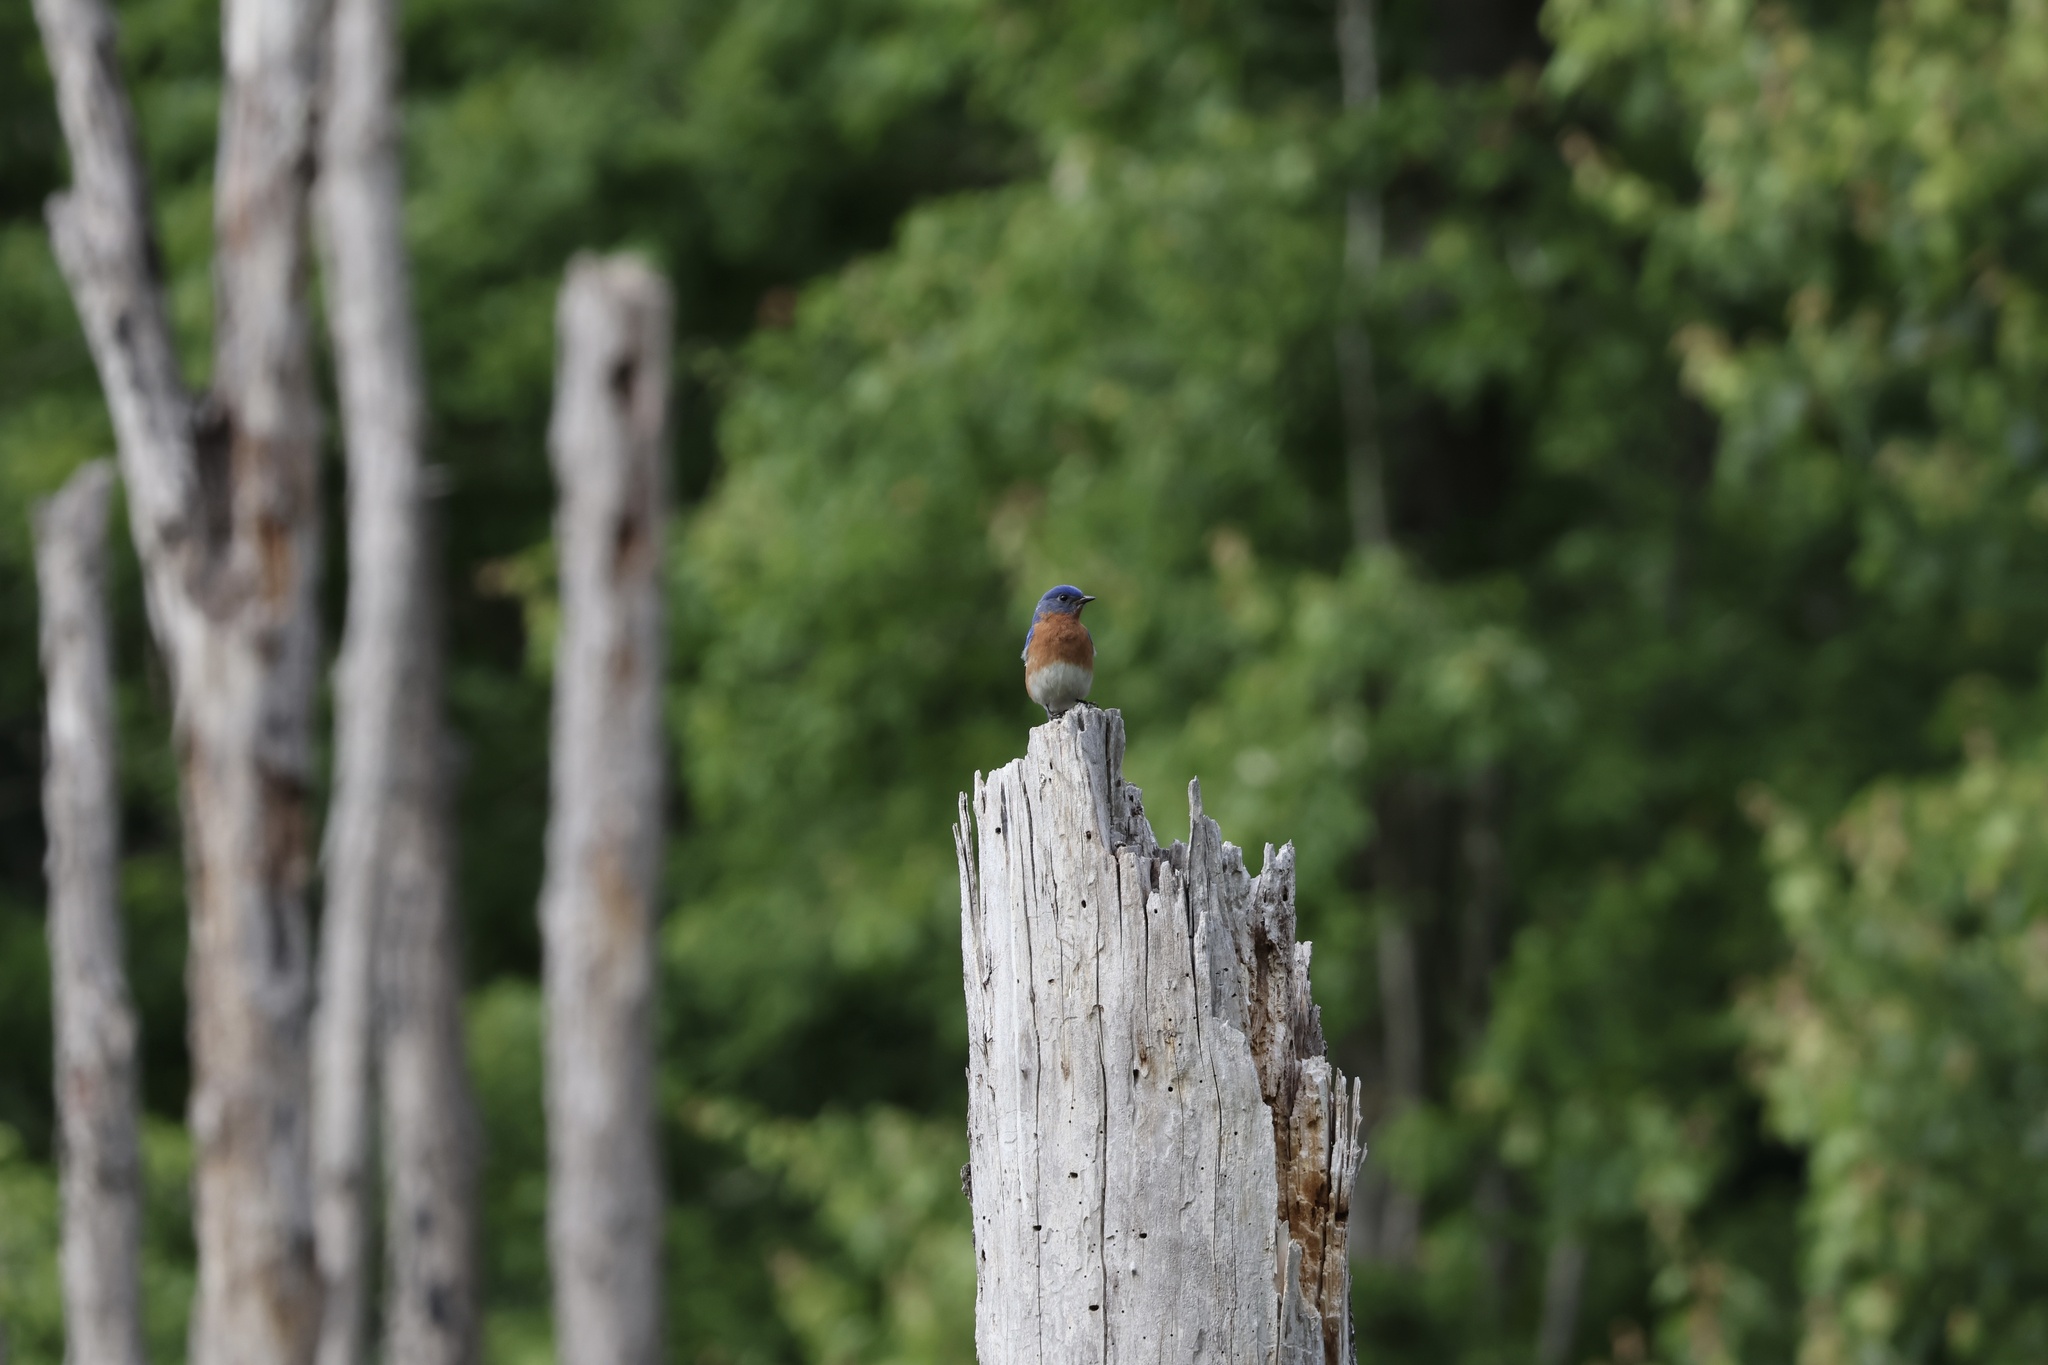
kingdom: Animalia
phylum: Chordata
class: Aves
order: Passeriformes
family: Turdidae
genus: Sialia
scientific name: Sialia sialis
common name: Eastern bluebird
